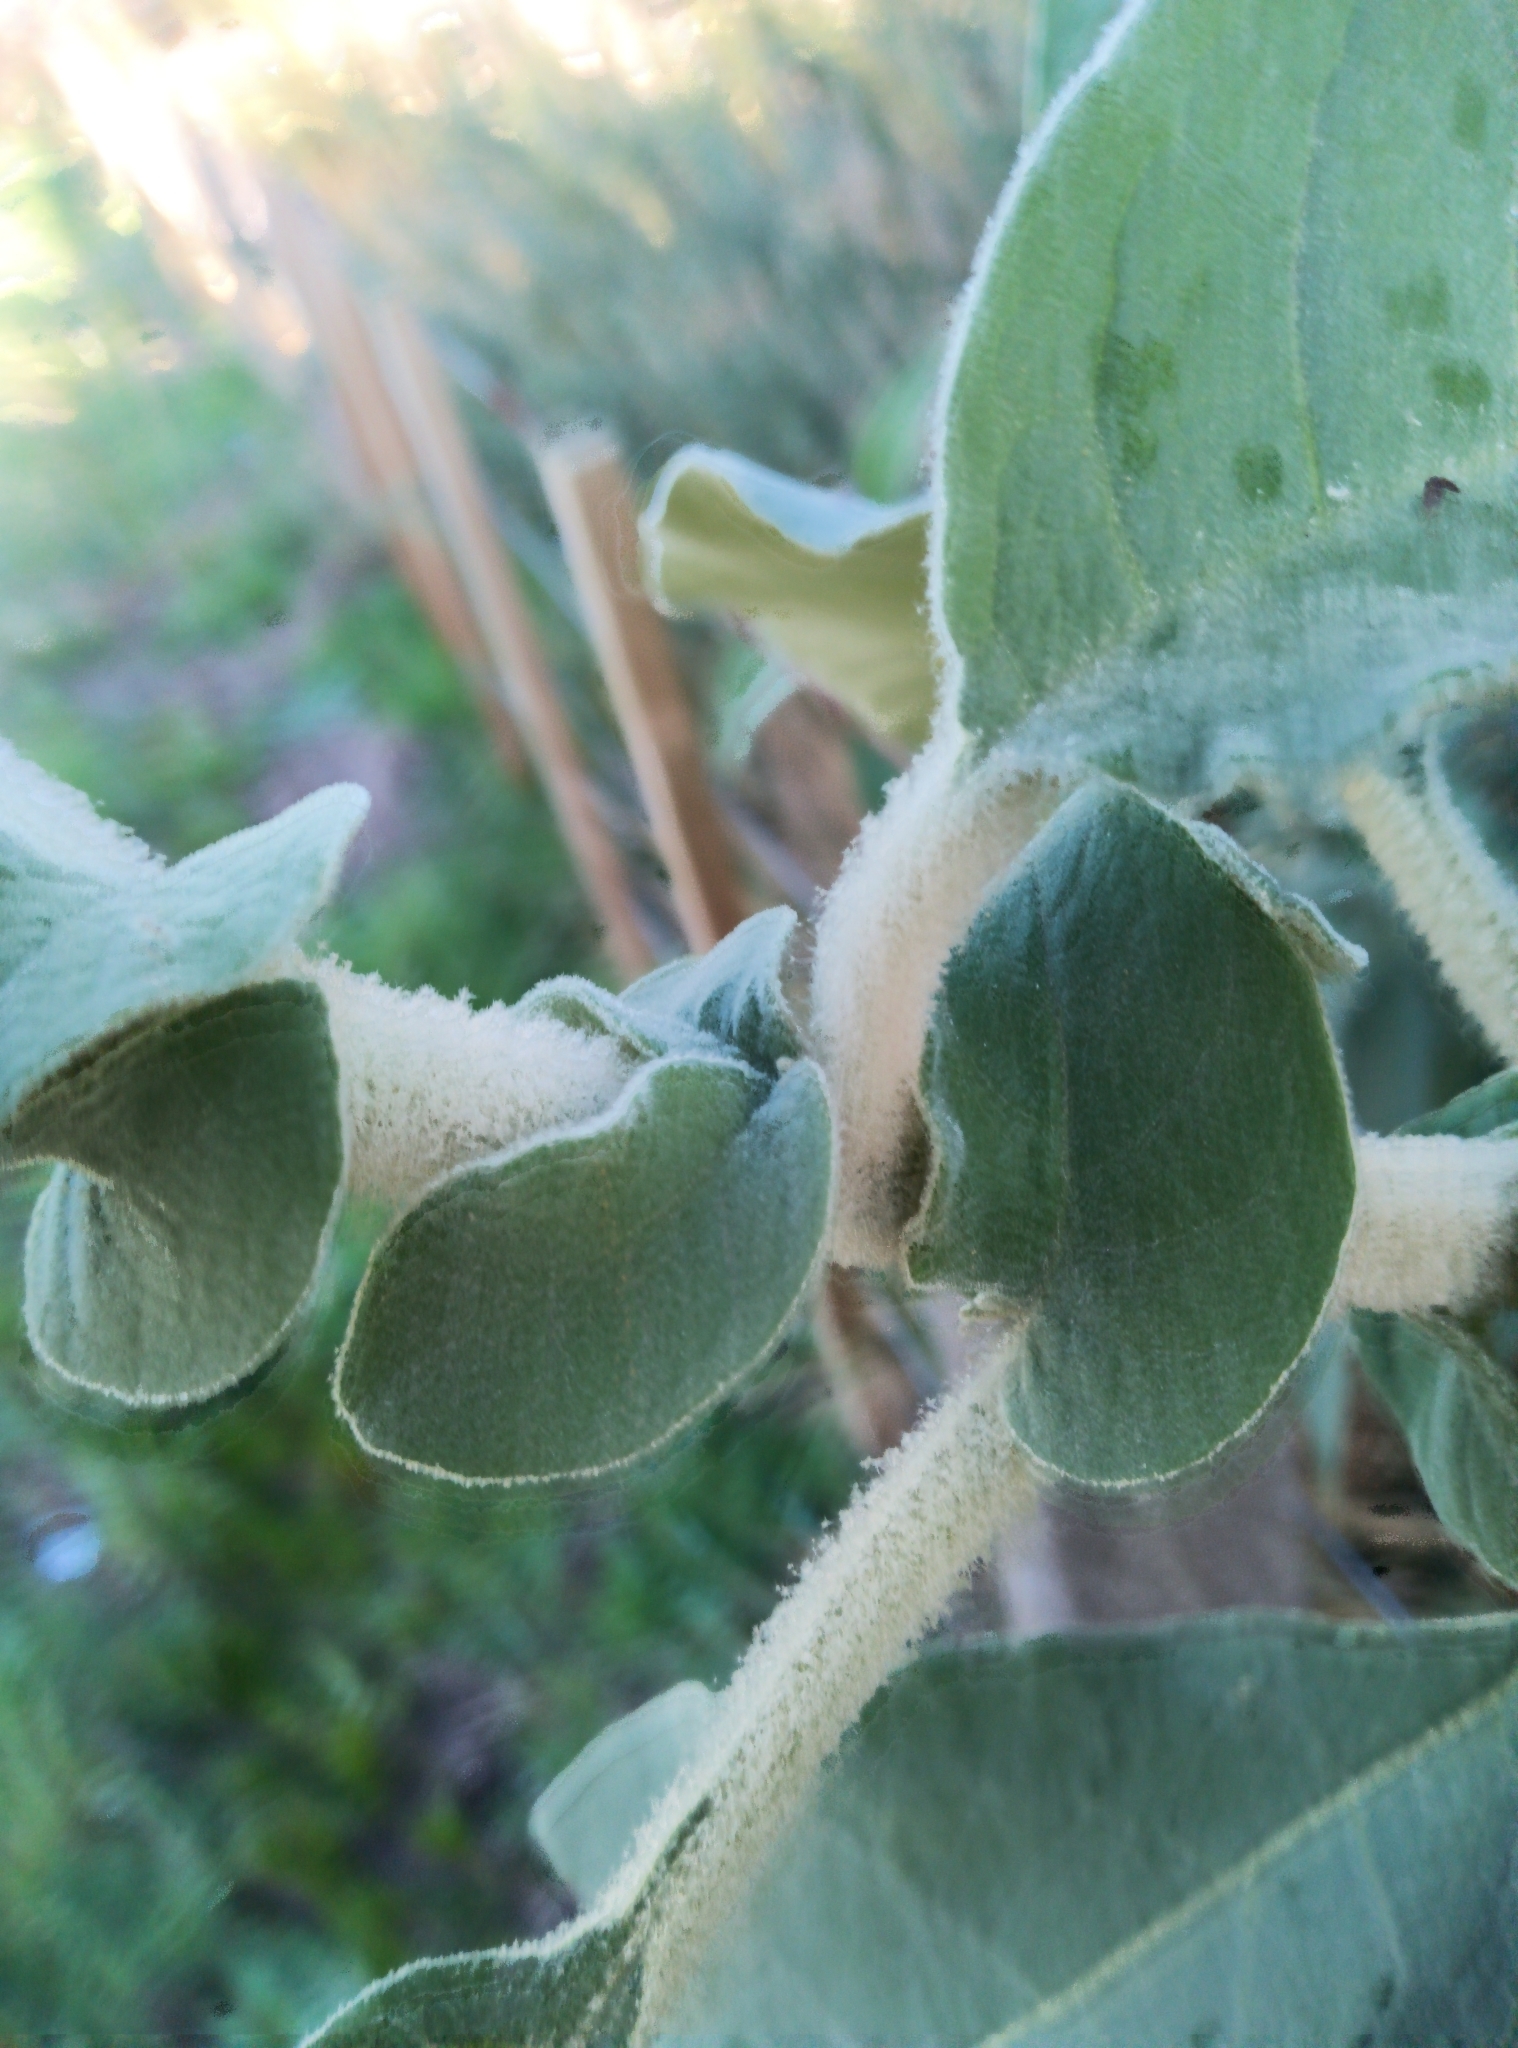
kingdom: Plantae
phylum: Tracheophyta
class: Magnoliopsida
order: Solanales
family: Solanaceae
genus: Solanum
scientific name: Solanum mauritianum
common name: Earleaf nightshade
